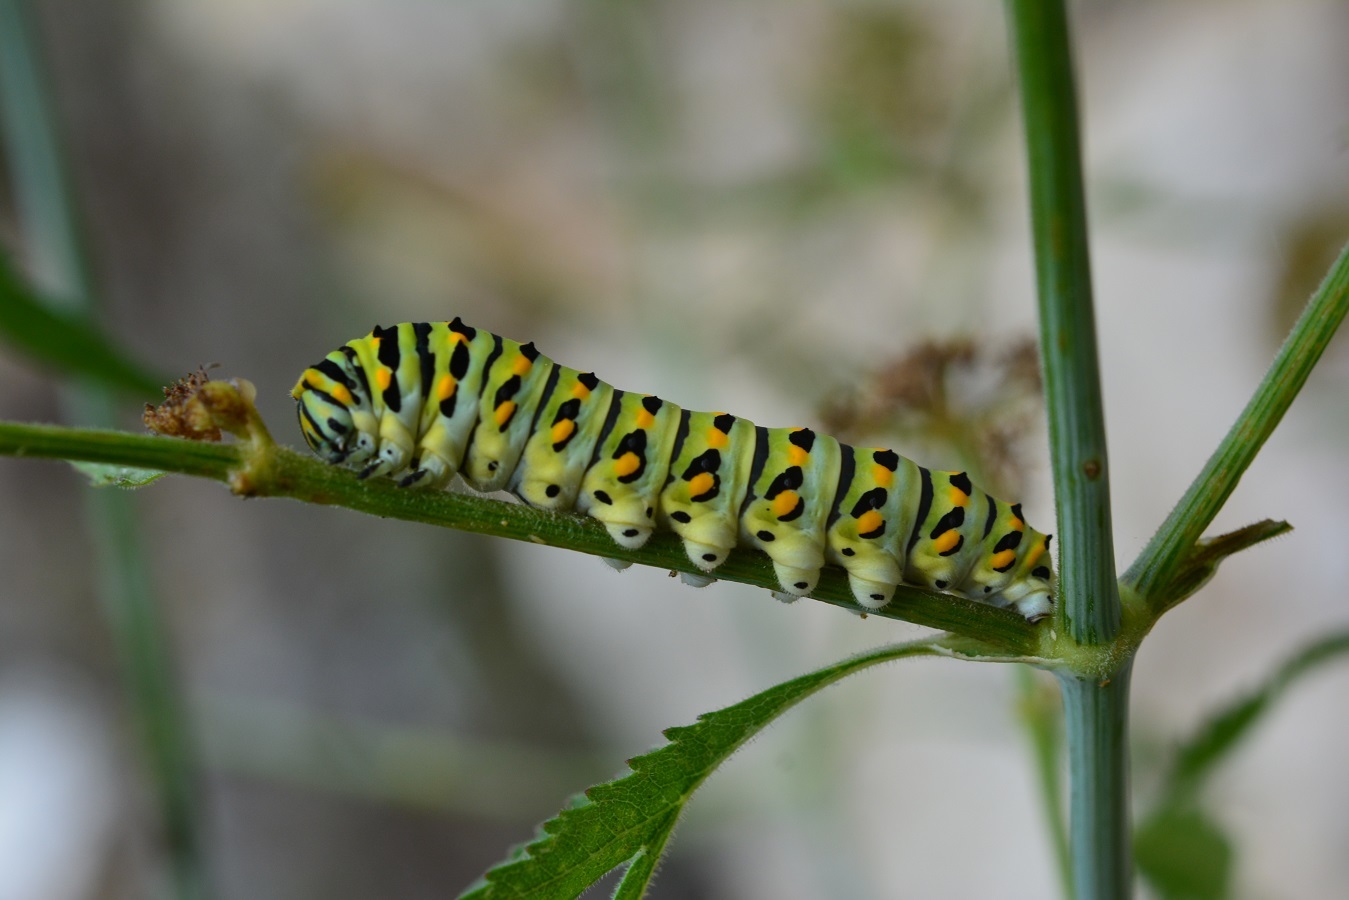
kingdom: Animalia
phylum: Arthropoda
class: Insecta
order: Lepidoptera
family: Papilionidae
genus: Papilio
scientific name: Papilio polyxenes
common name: Black swallowtail
